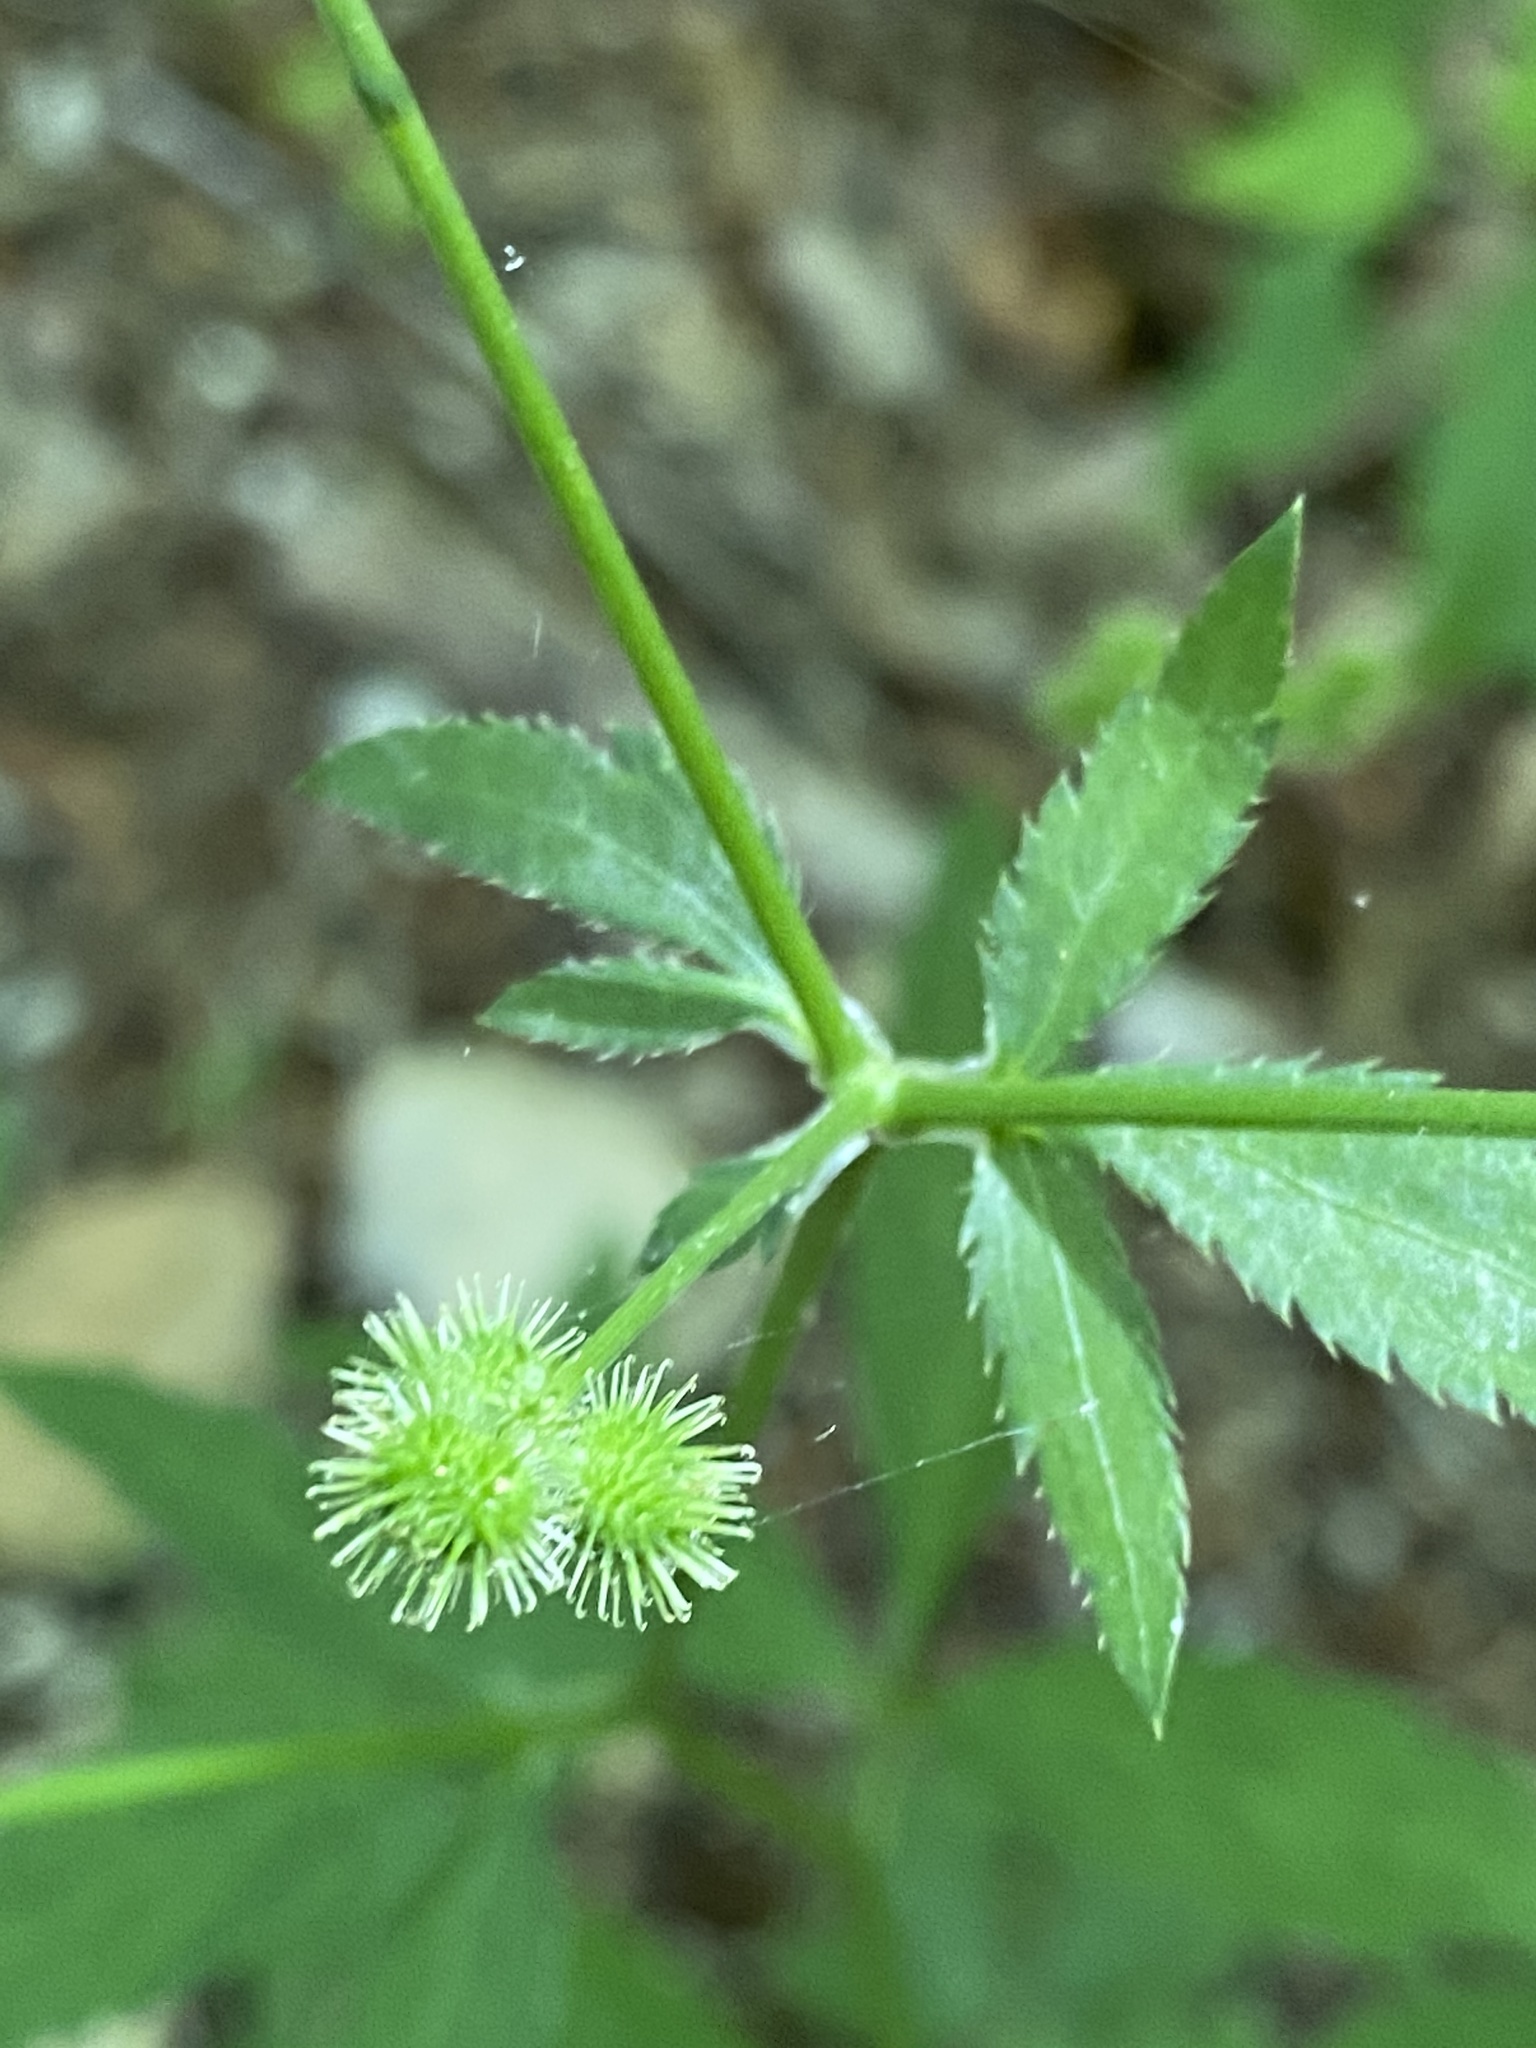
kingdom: Plantae
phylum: Tracheophyta
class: Magnoliopsida
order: Apiales
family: Apiaceae
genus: Sanicula
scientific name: Sanicula canadensis
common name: Canada sanicle
